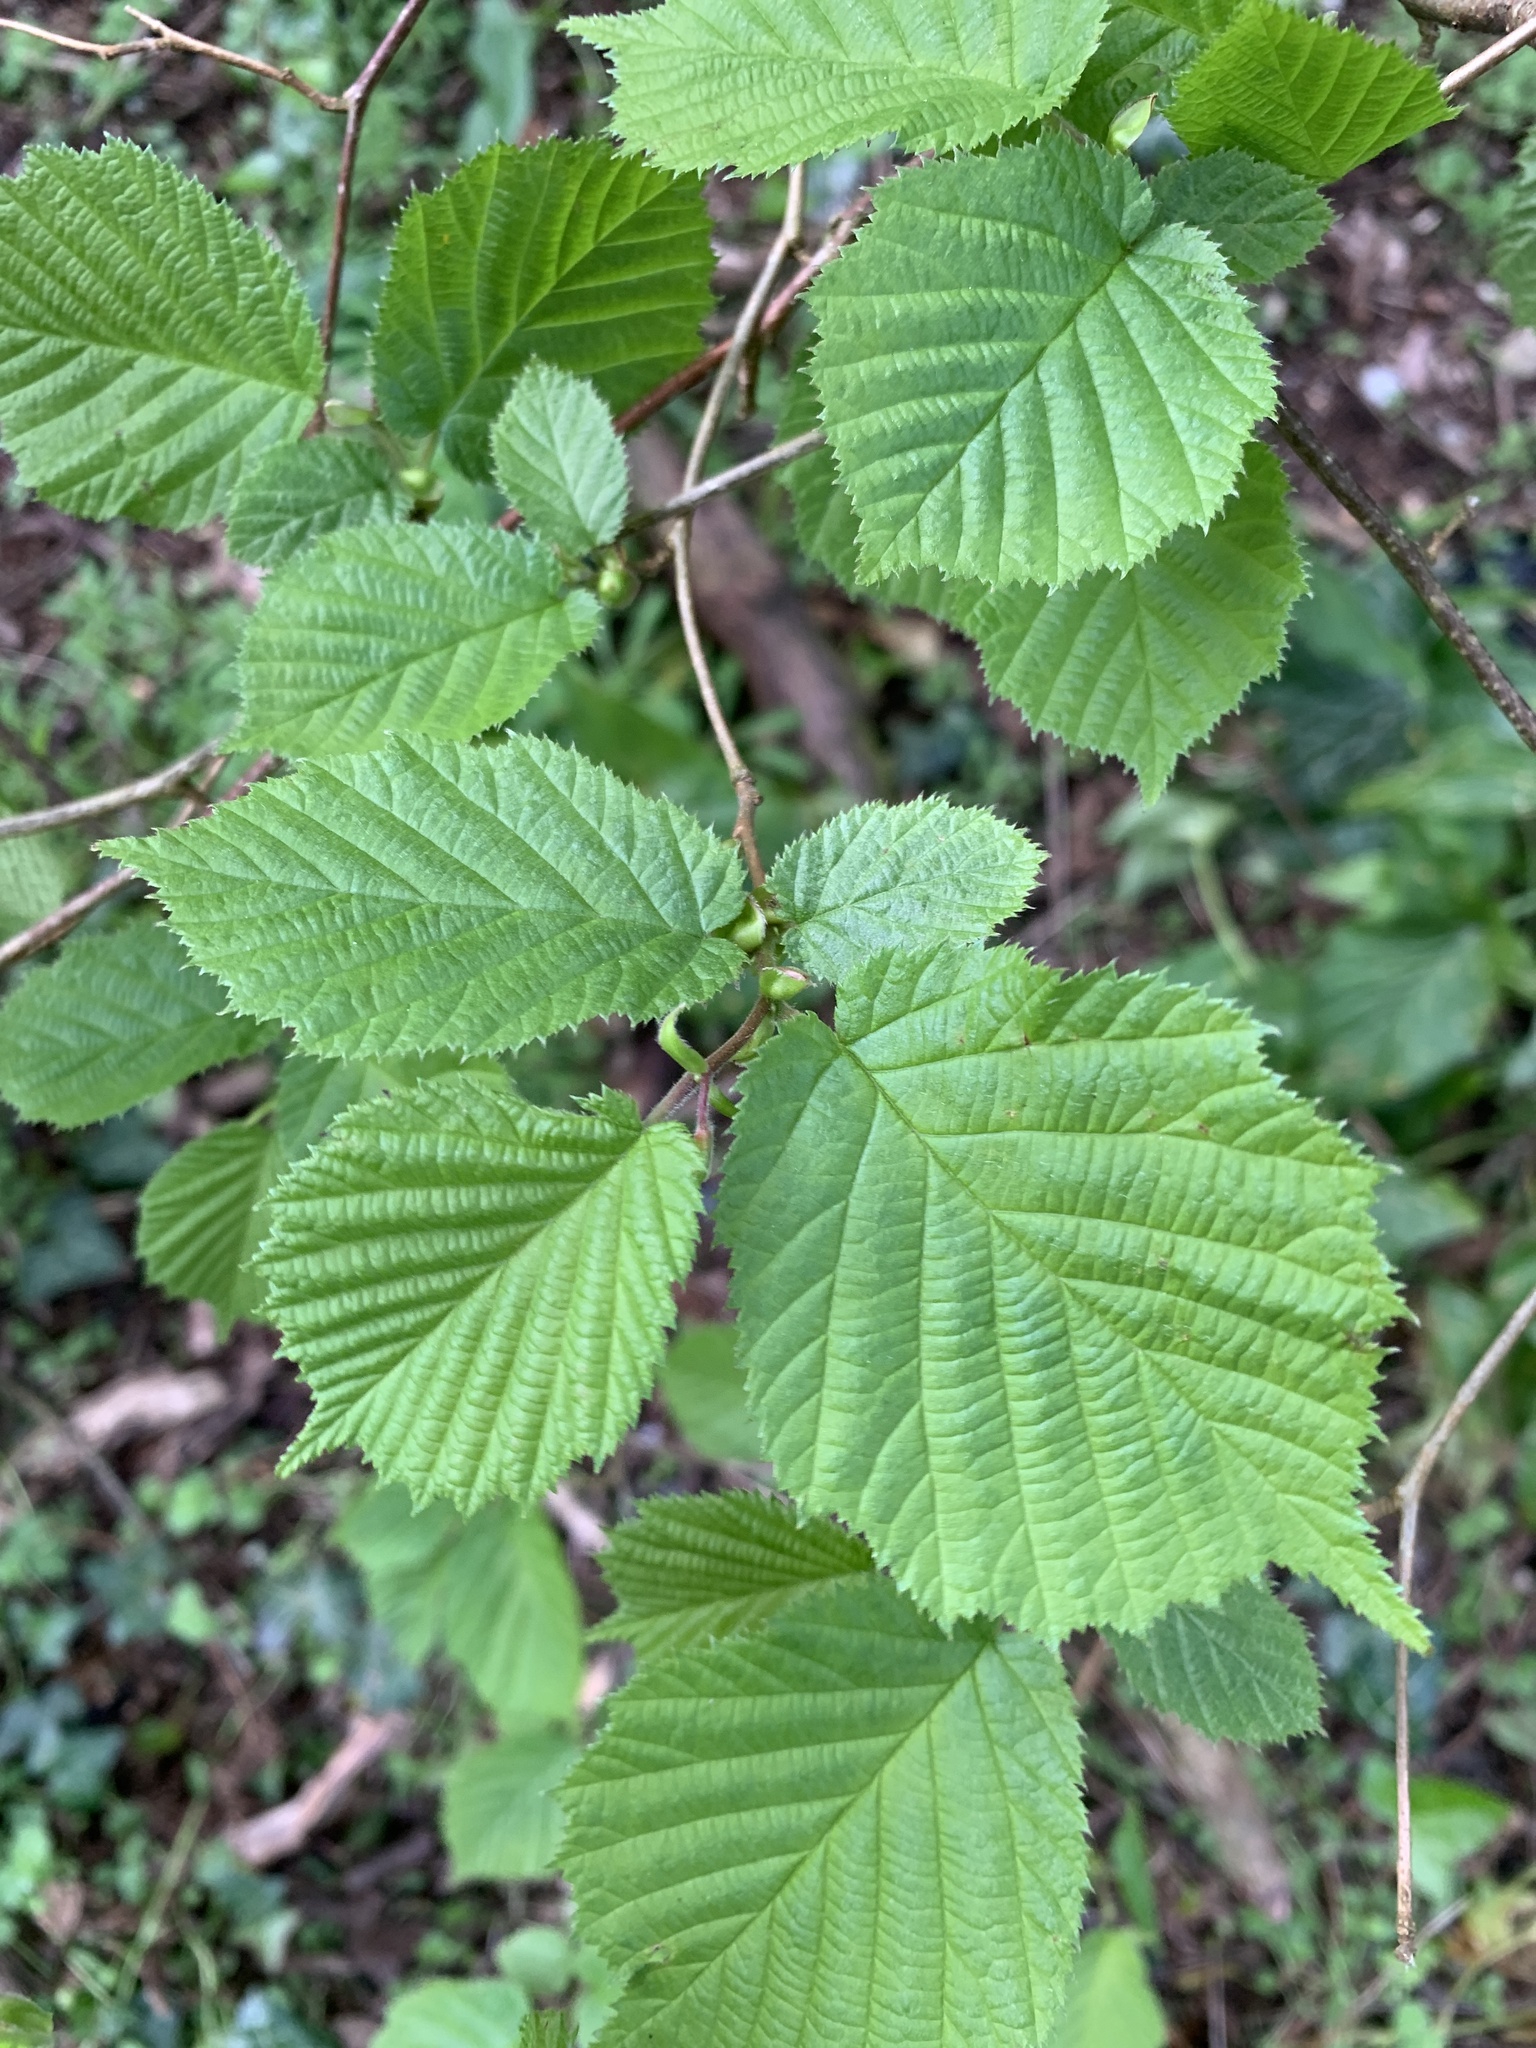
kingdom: Plantae
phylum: Tracheophyta
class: Magnoliopsida
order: Fagales
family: Betulaceae
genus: Corylus
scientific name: Corylus avellana
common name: European hazel
